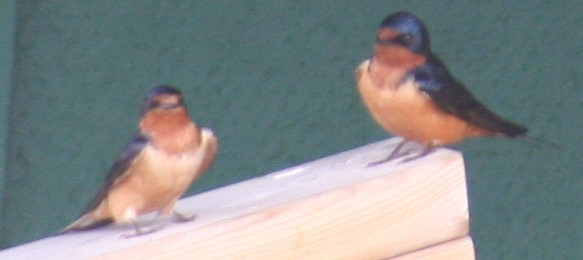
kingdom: Animalia
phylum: Chordata
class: Aves
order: Passeriformes
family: Hirundinidae
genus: Hirundo
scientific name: Hirundo rustica
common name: Barn swallow
